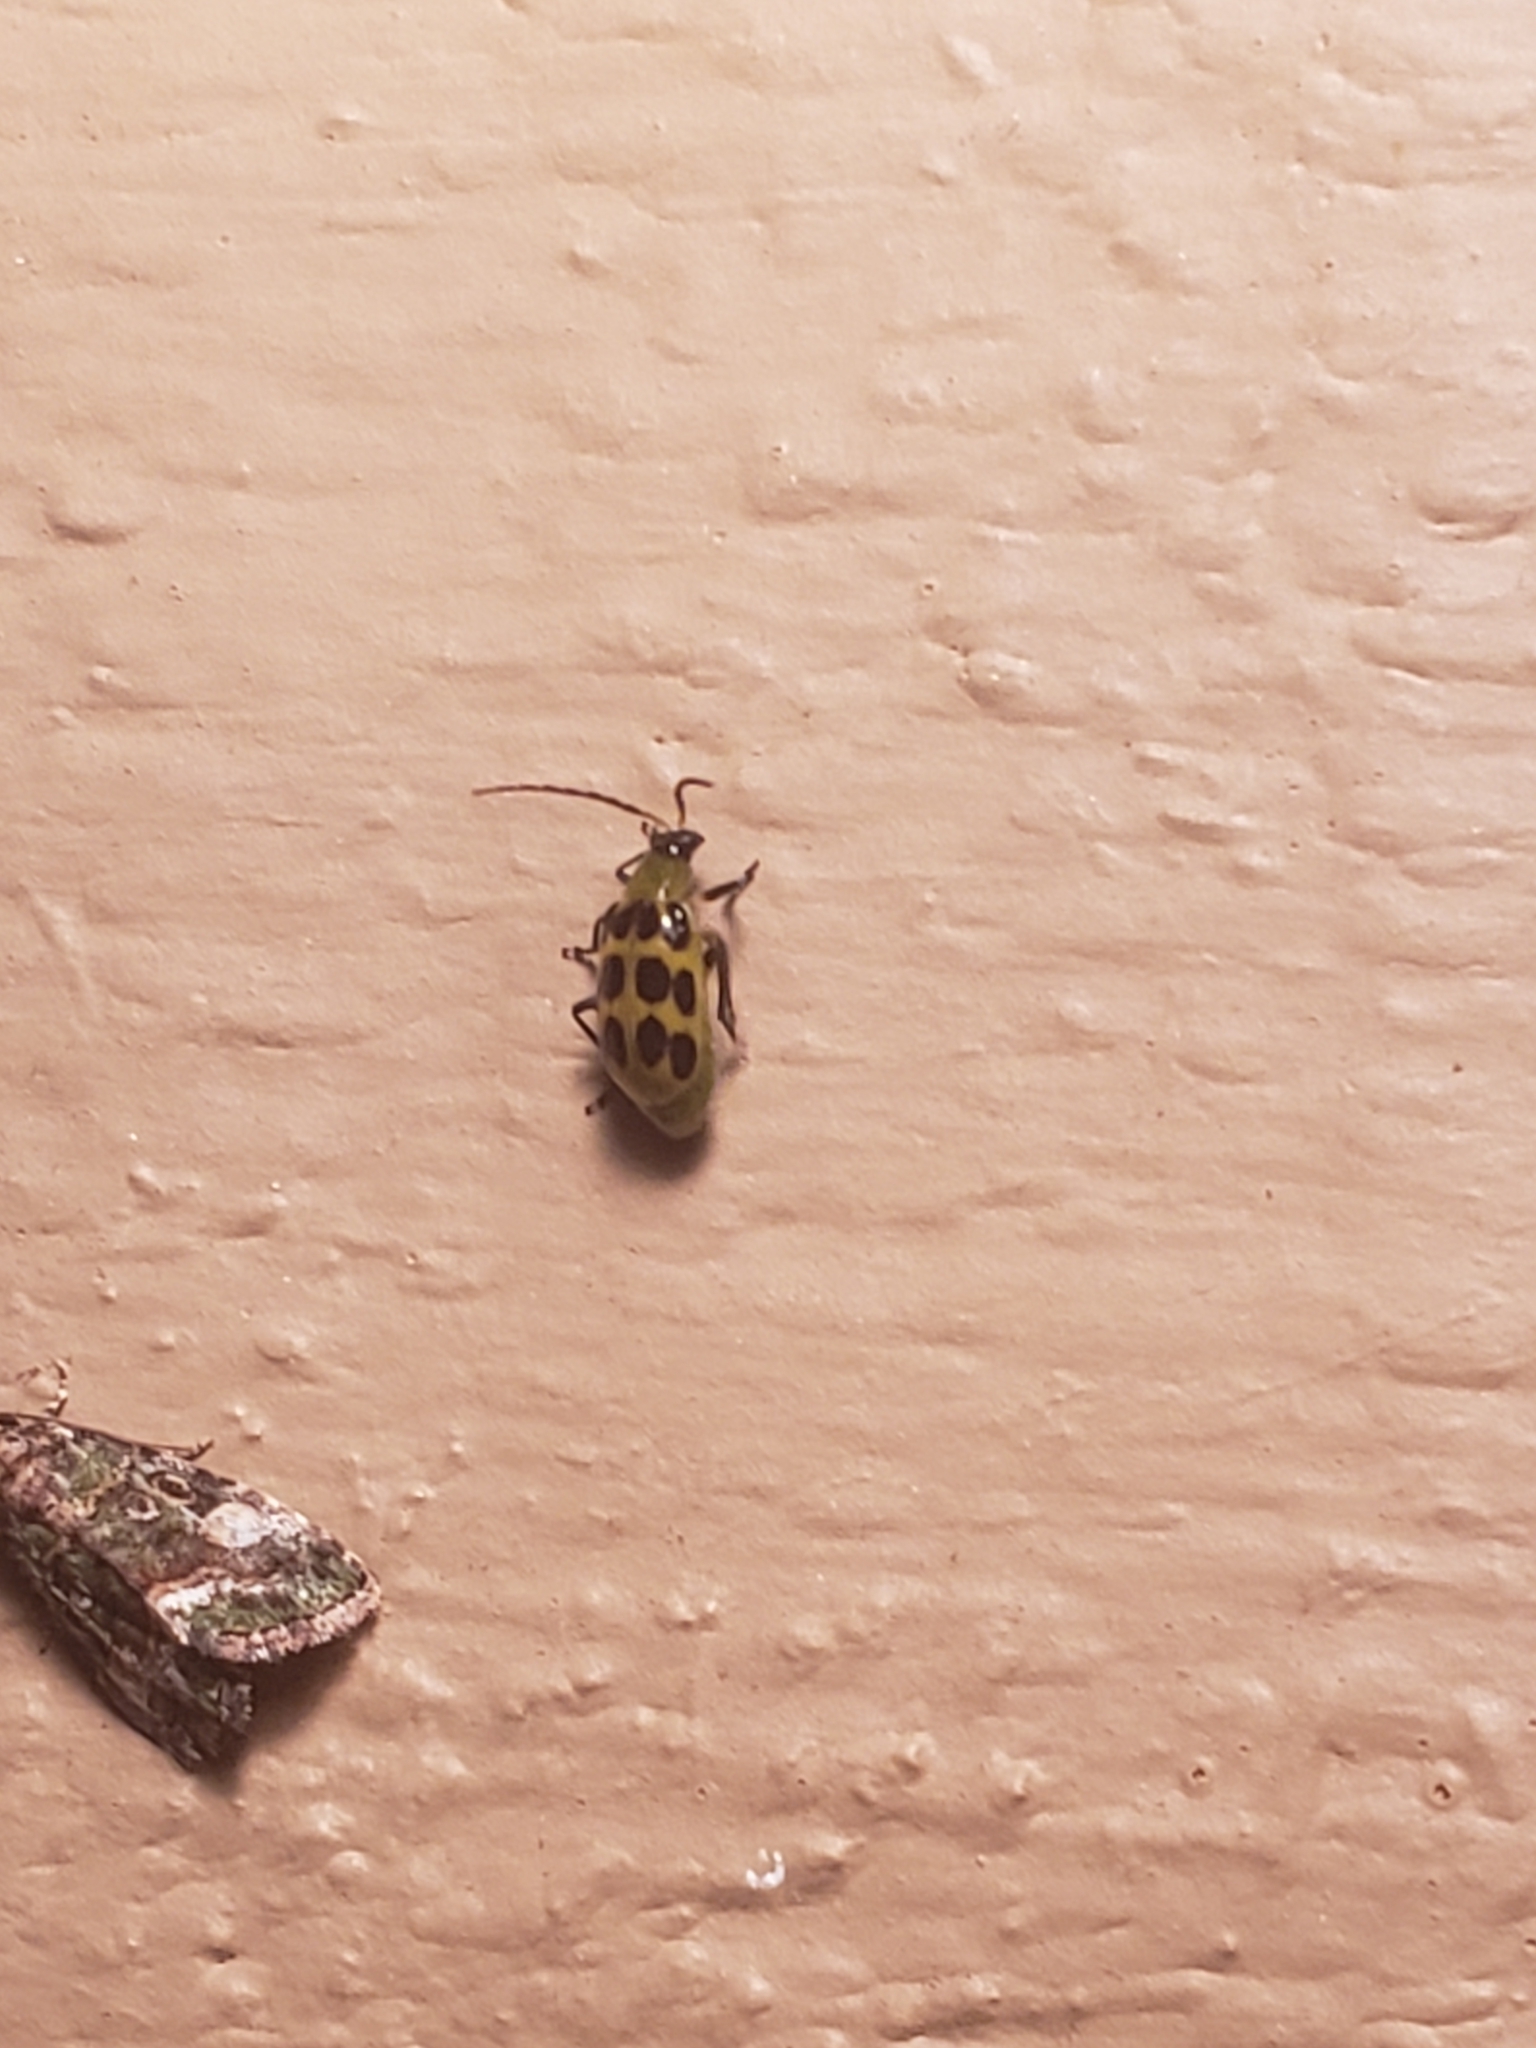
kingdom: Animalia
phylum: Arthropoda
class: Insecta
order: Coleoptera
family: Chrysomelidae
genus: Diabrotica
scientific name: Diabrotica undecimpunctata
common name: Spotted cucumber beetle
